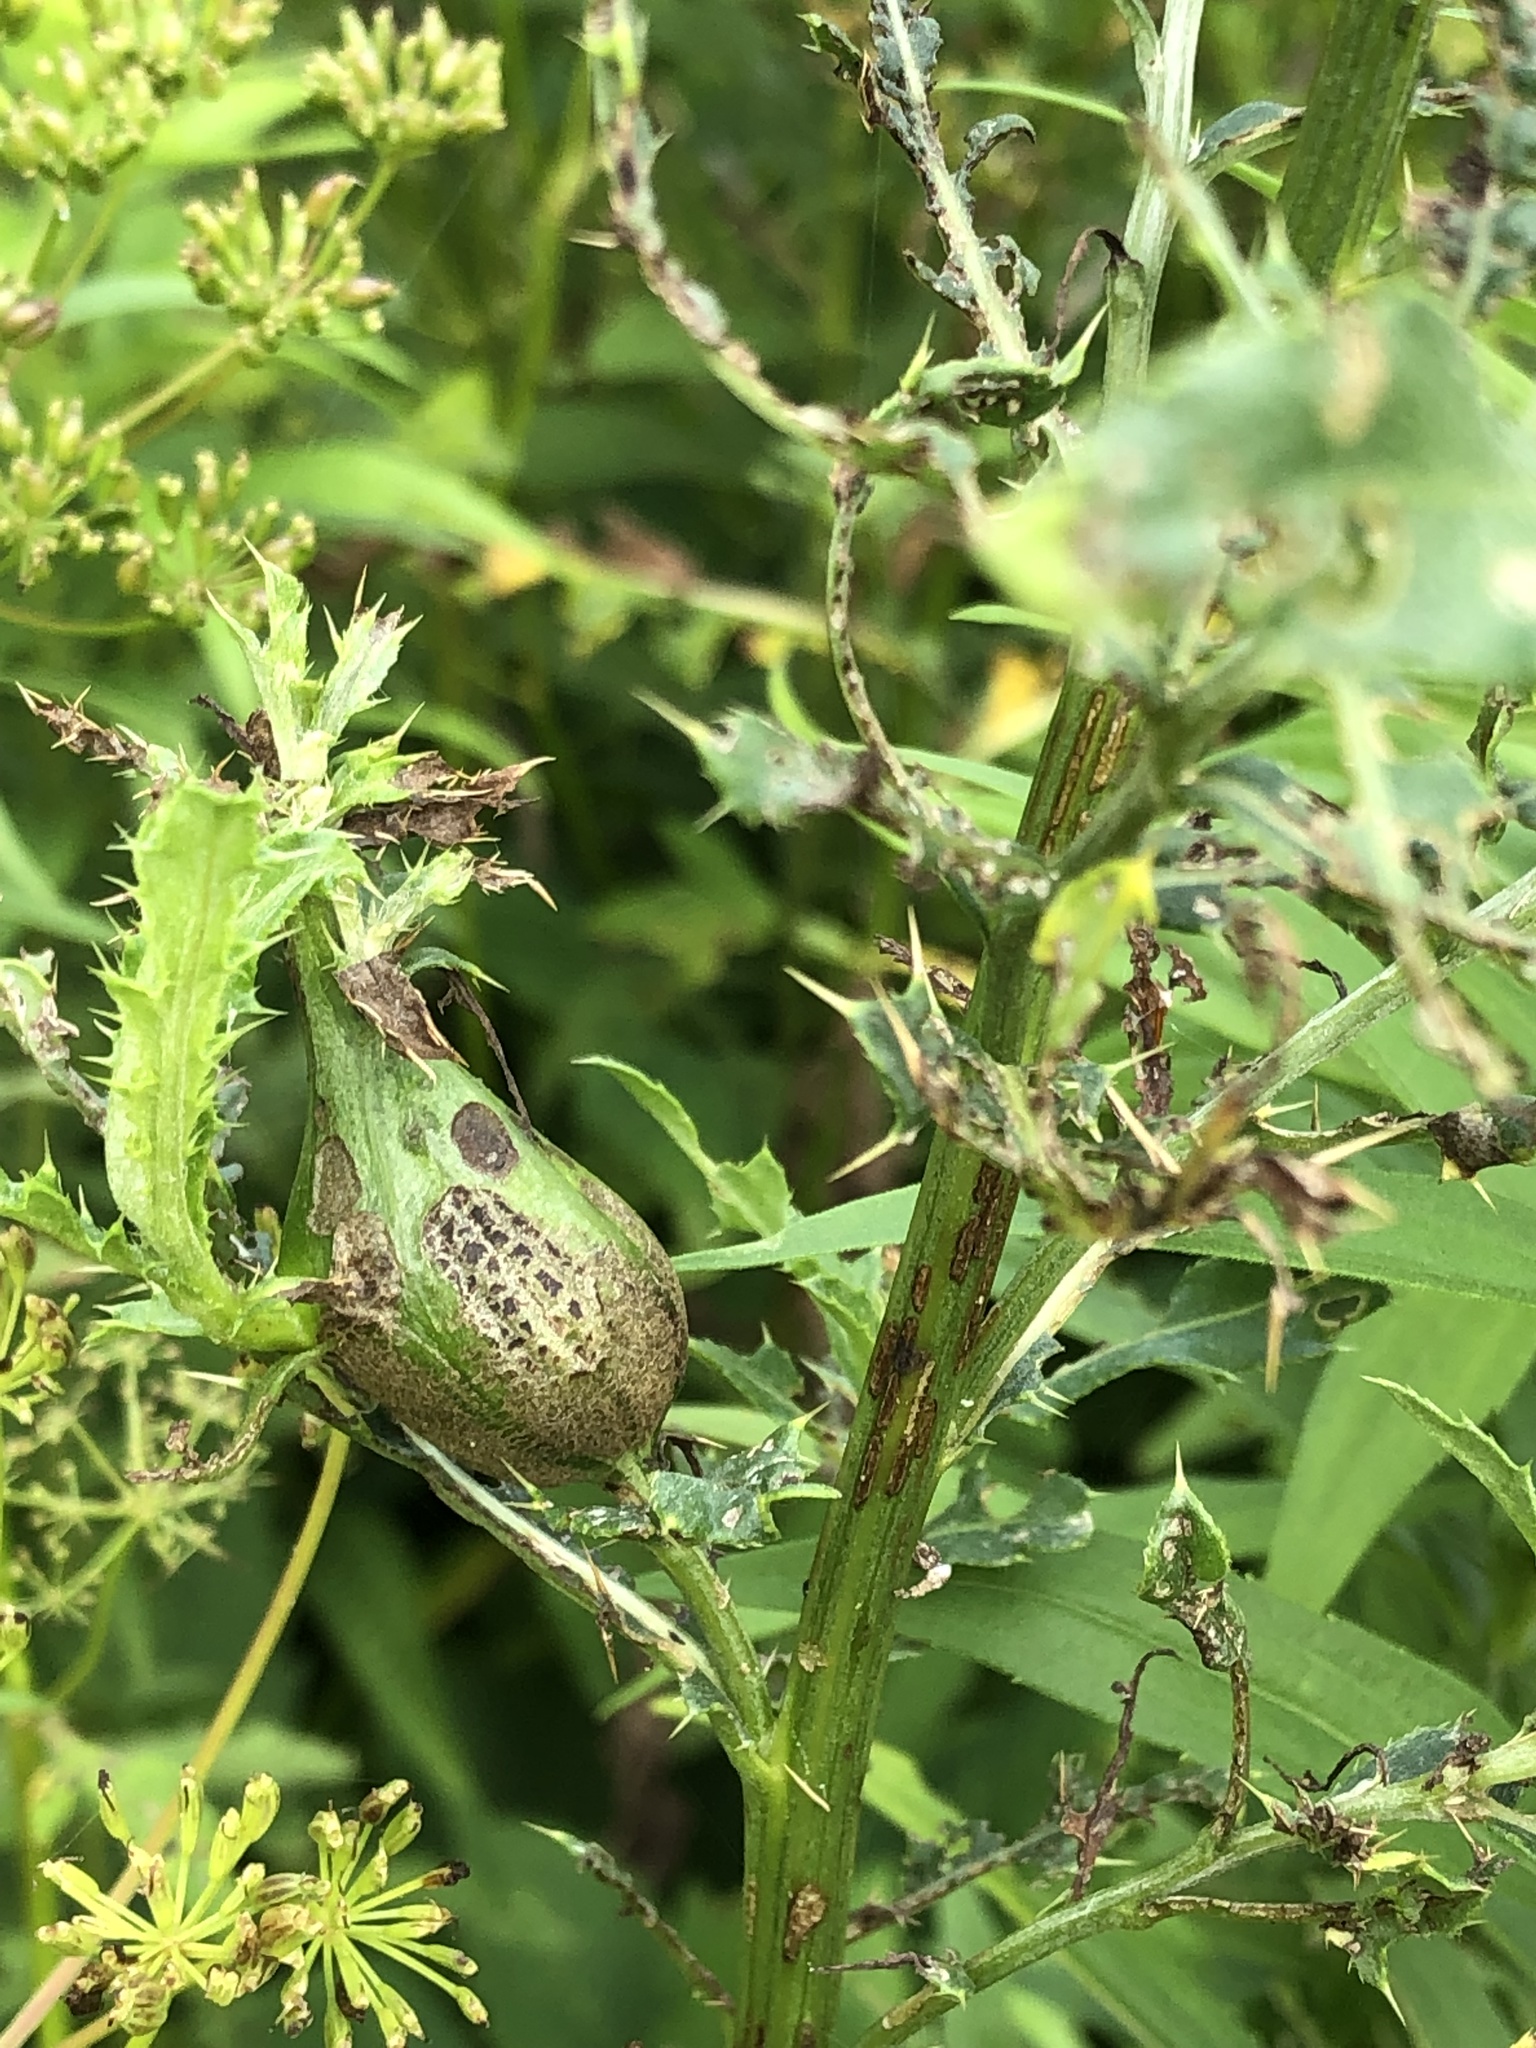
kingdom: Animalia
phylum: Arthropoda
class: Insecta
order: Diptera
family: Tephritidae
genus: Urophora
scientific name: Urophora cardui
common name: Fruit fly
